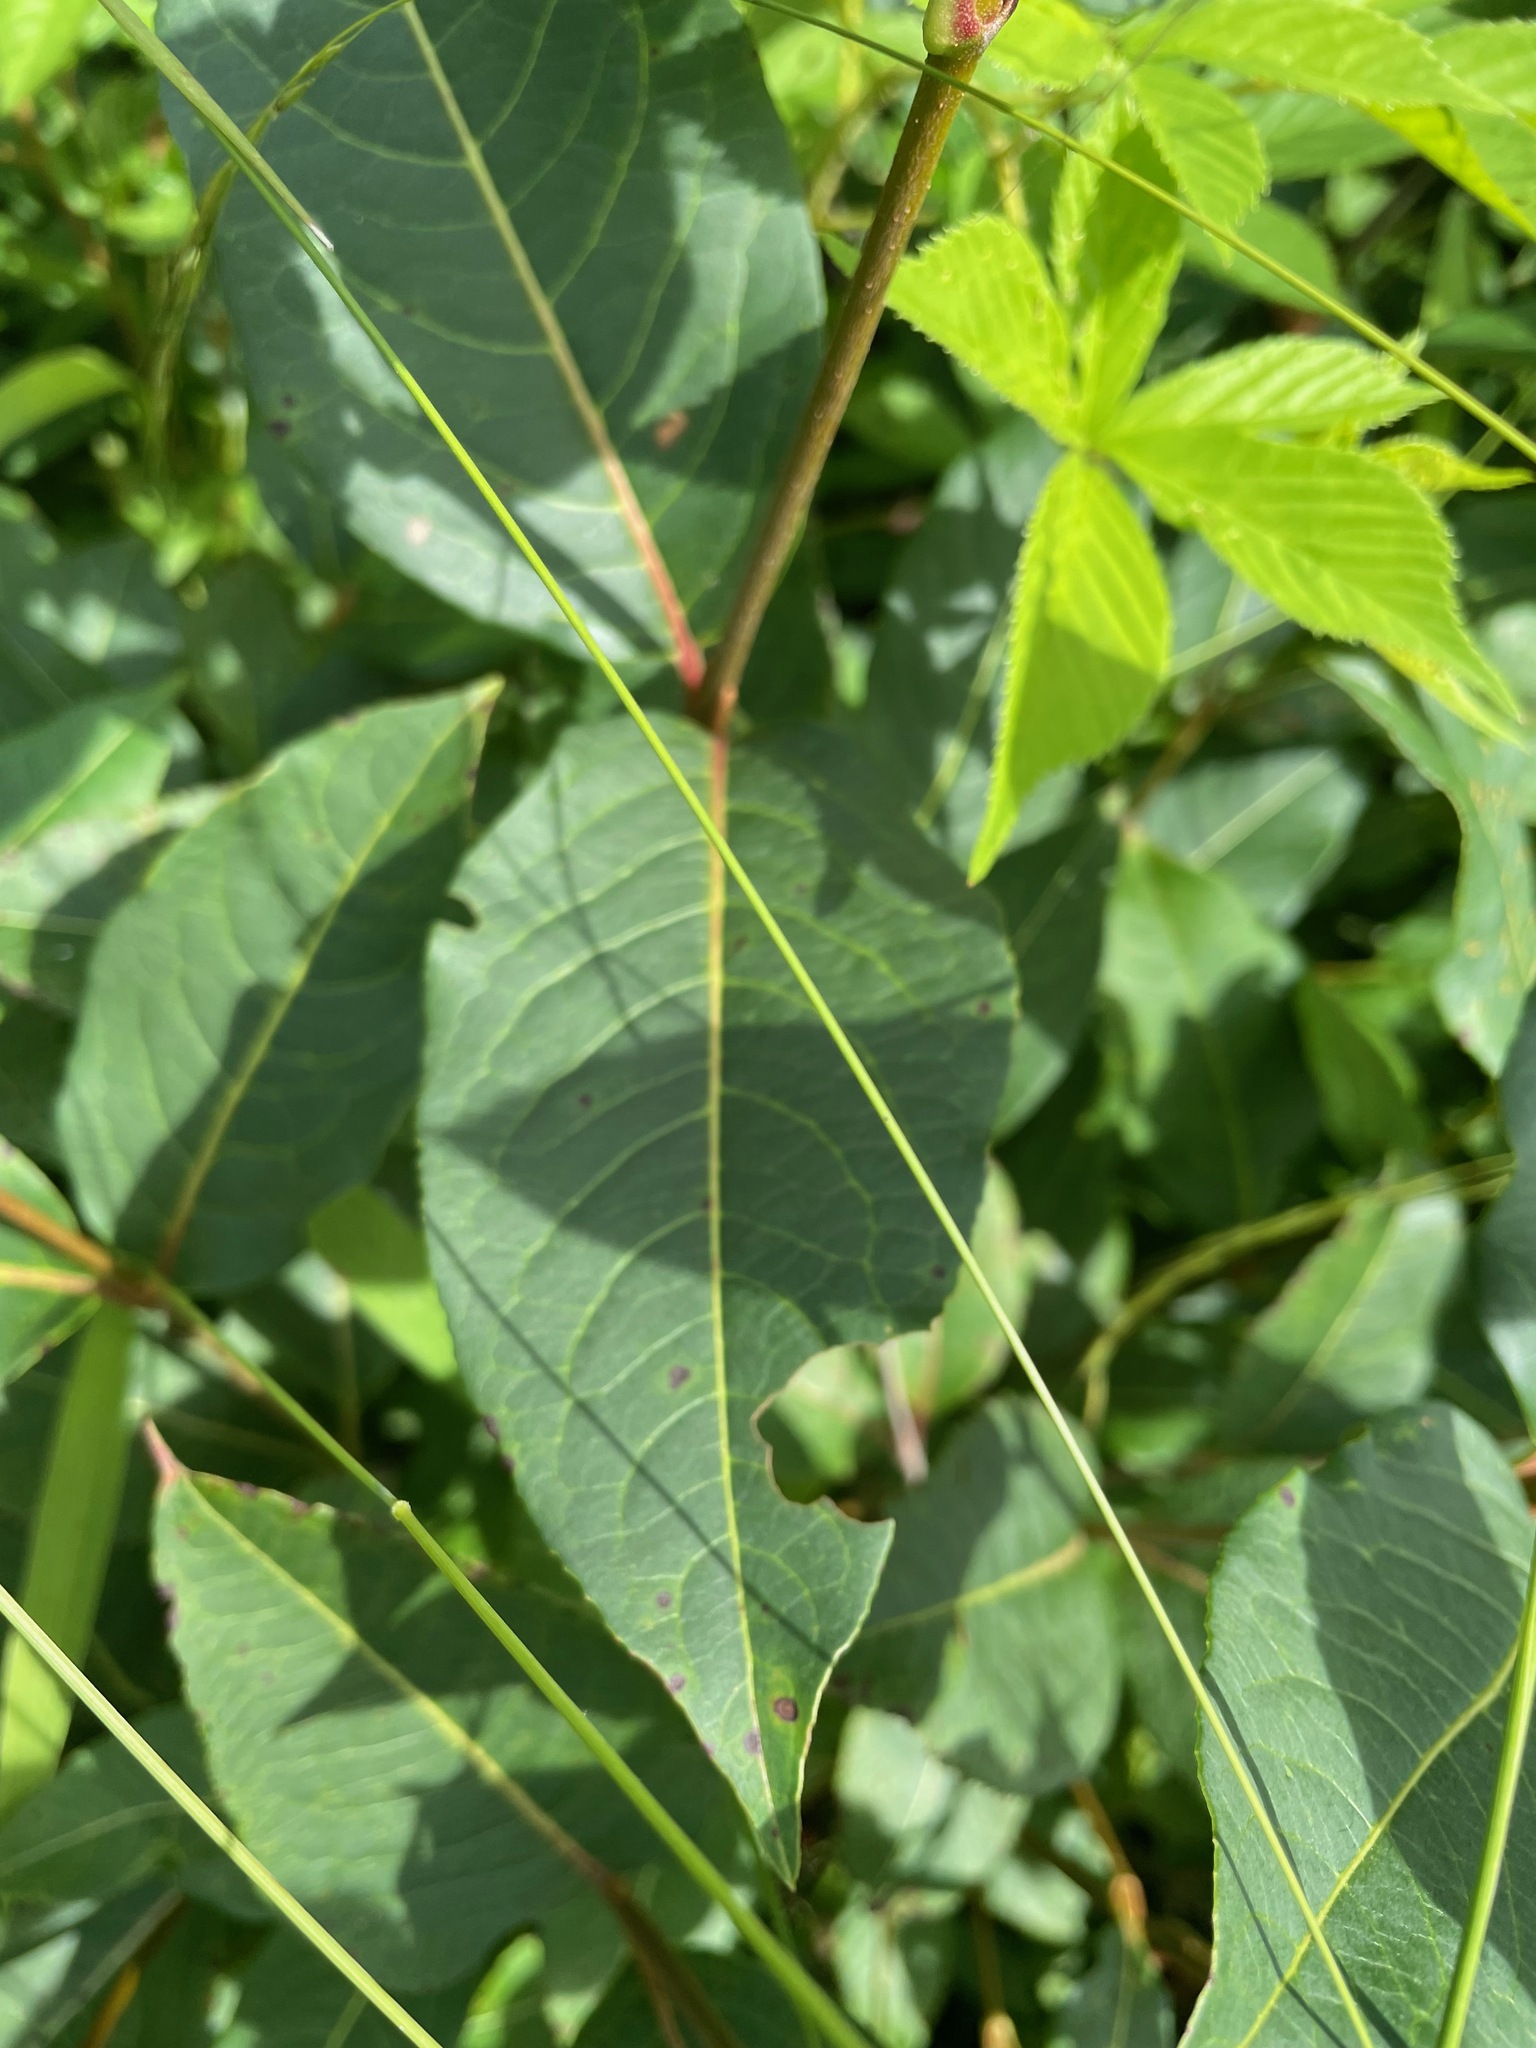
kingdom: Plantae
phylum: Tracheophyta
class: Magnoliopsida
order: Dipsacales
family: Viburnaceae
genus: Viburnum
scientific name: Viburnum cassinoides
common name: Swamp haw
